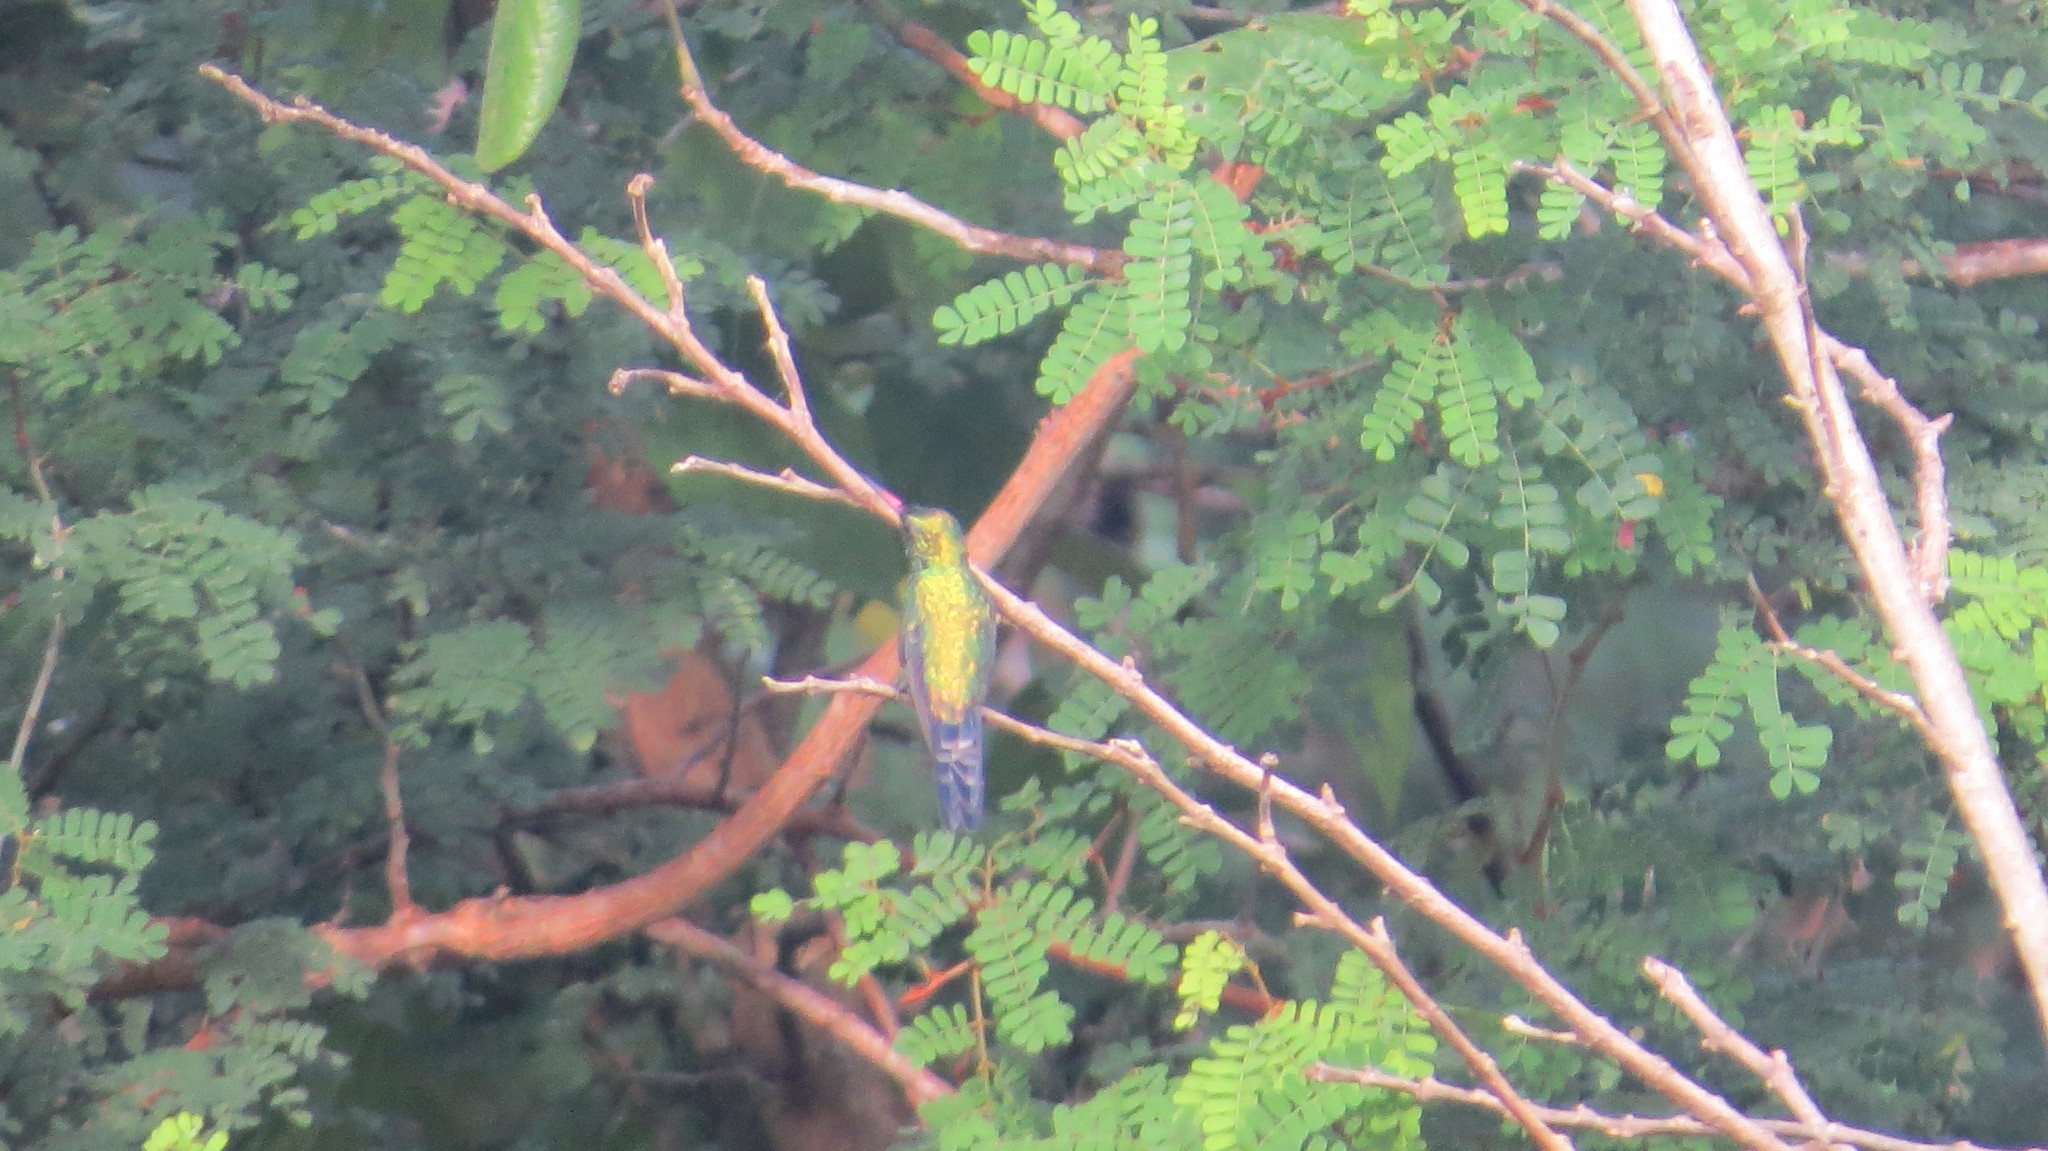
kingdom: Animalia
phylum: Chordata
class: Aves
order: Apodiformes
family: Trochilidae
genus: Cynanthus
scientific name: Cynanthus canivetii
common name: Canivet's emerald
